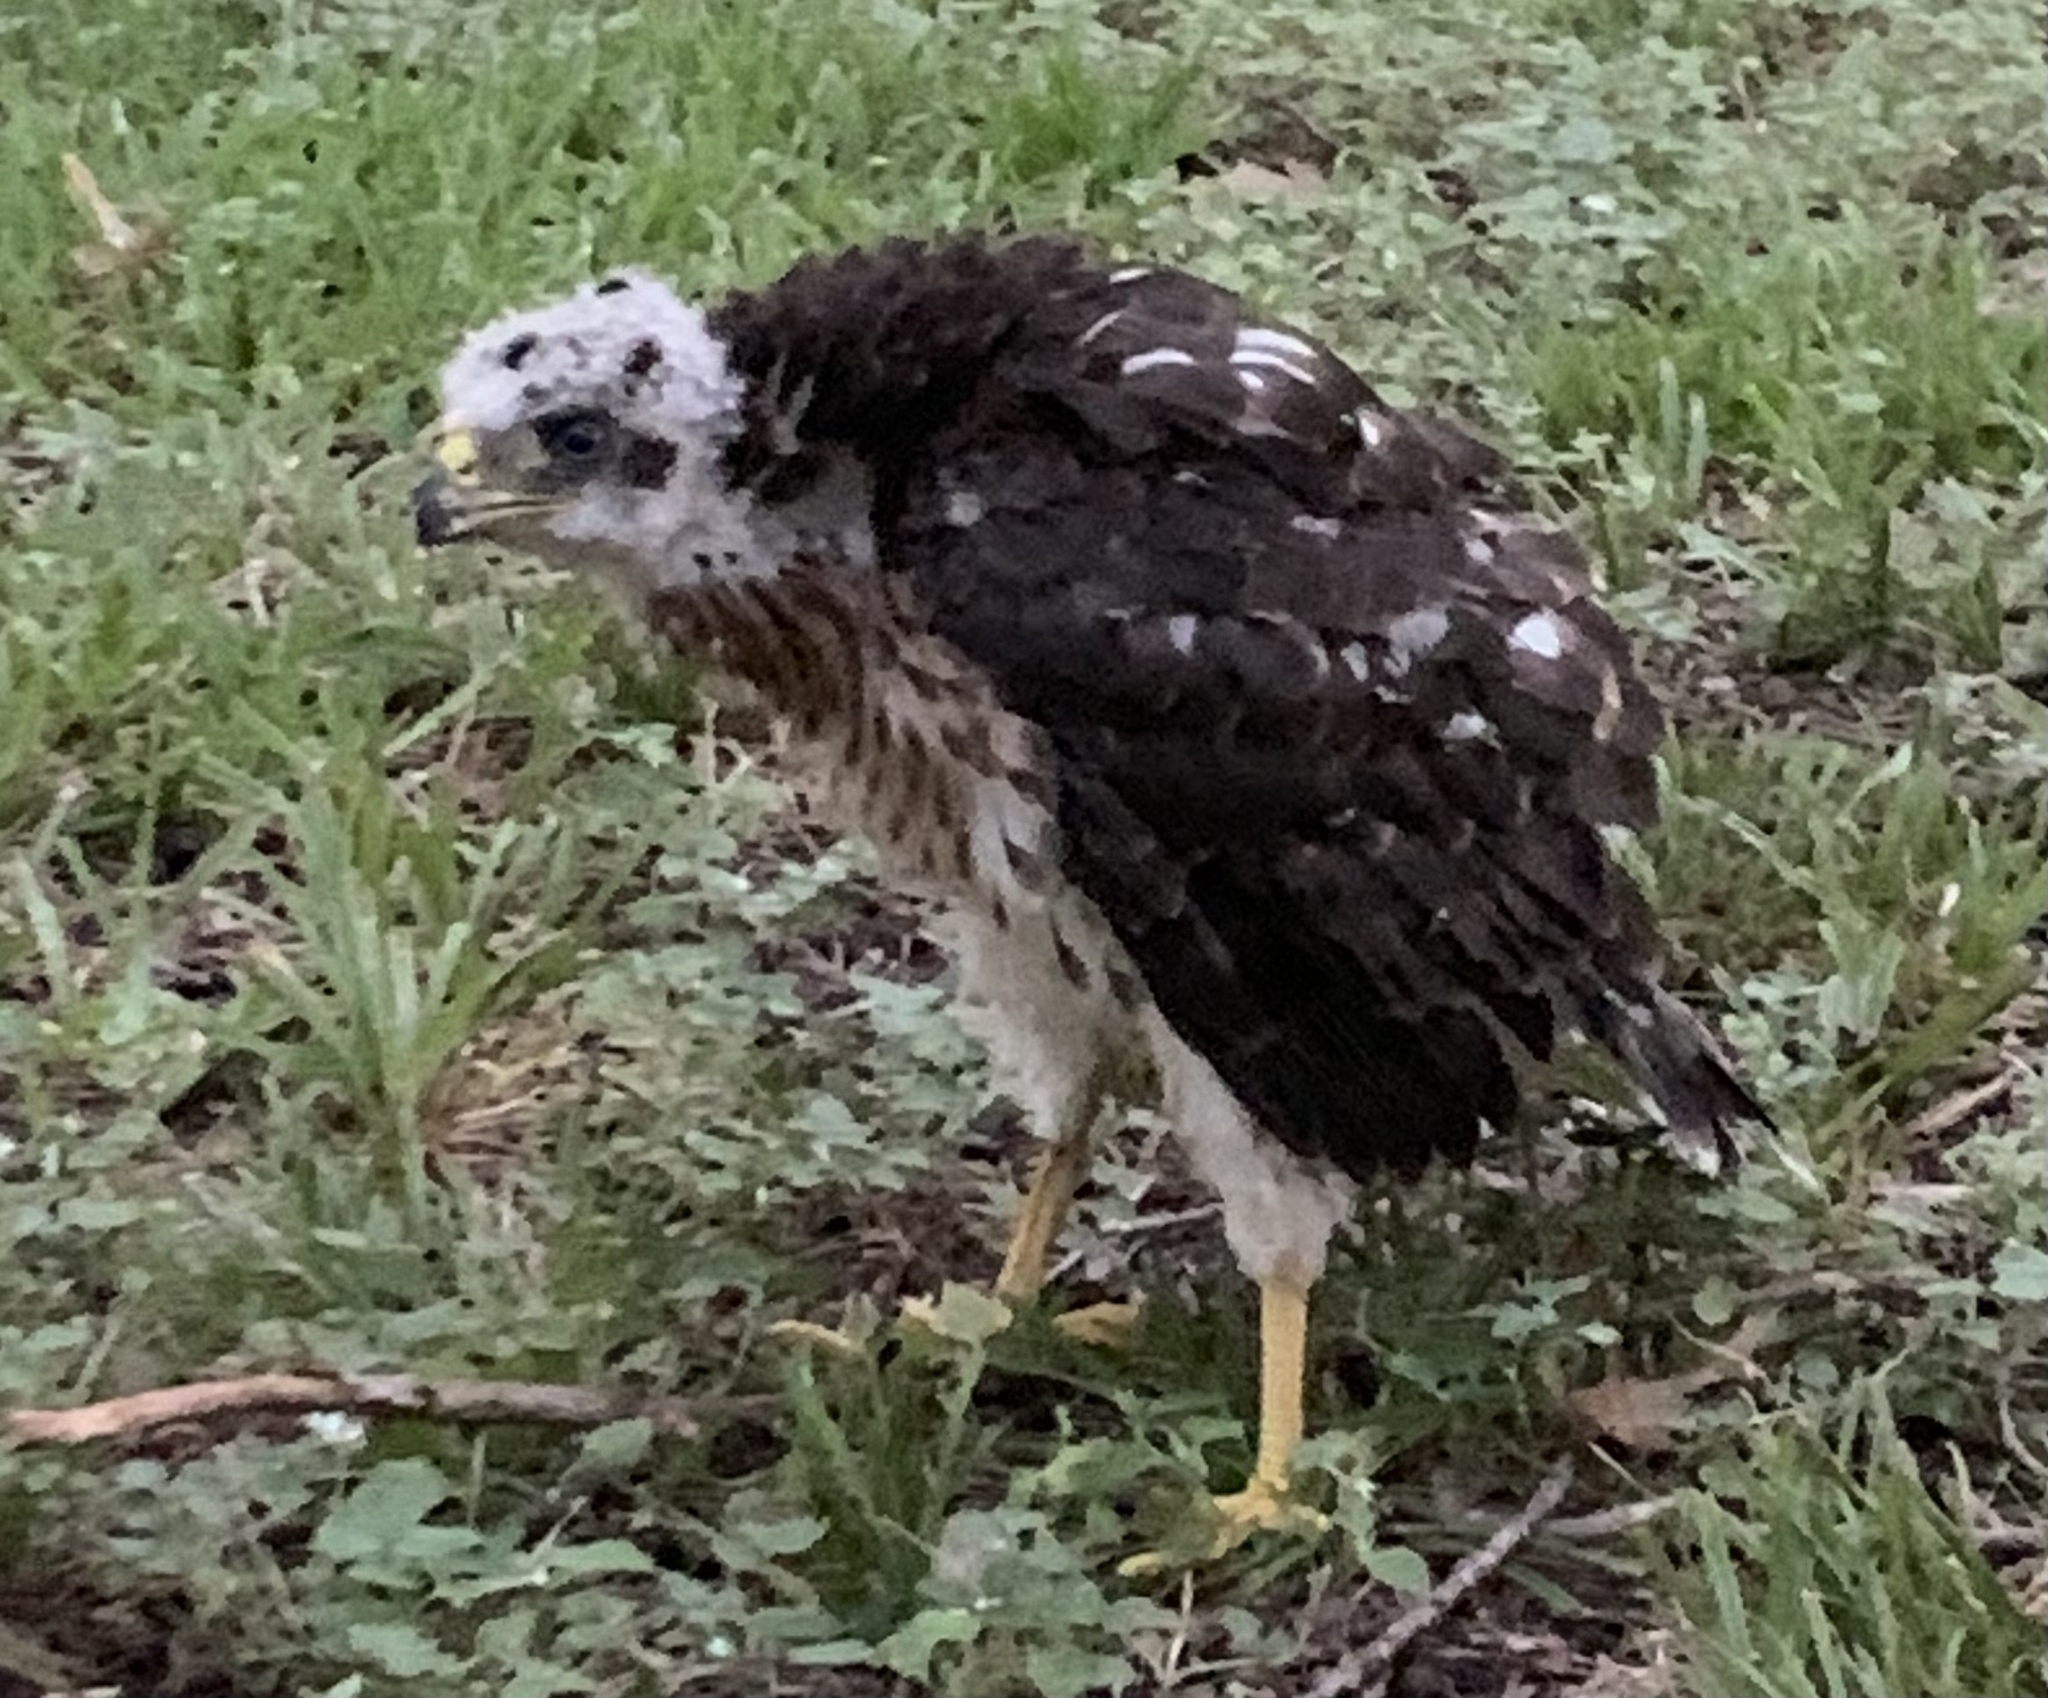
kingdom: Animalia
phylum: Chordata
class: Aves
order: Accipitriformes
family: Accipitridae
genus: Accipiter
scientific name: Accipiter cooperii
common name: Cooper's hawk
